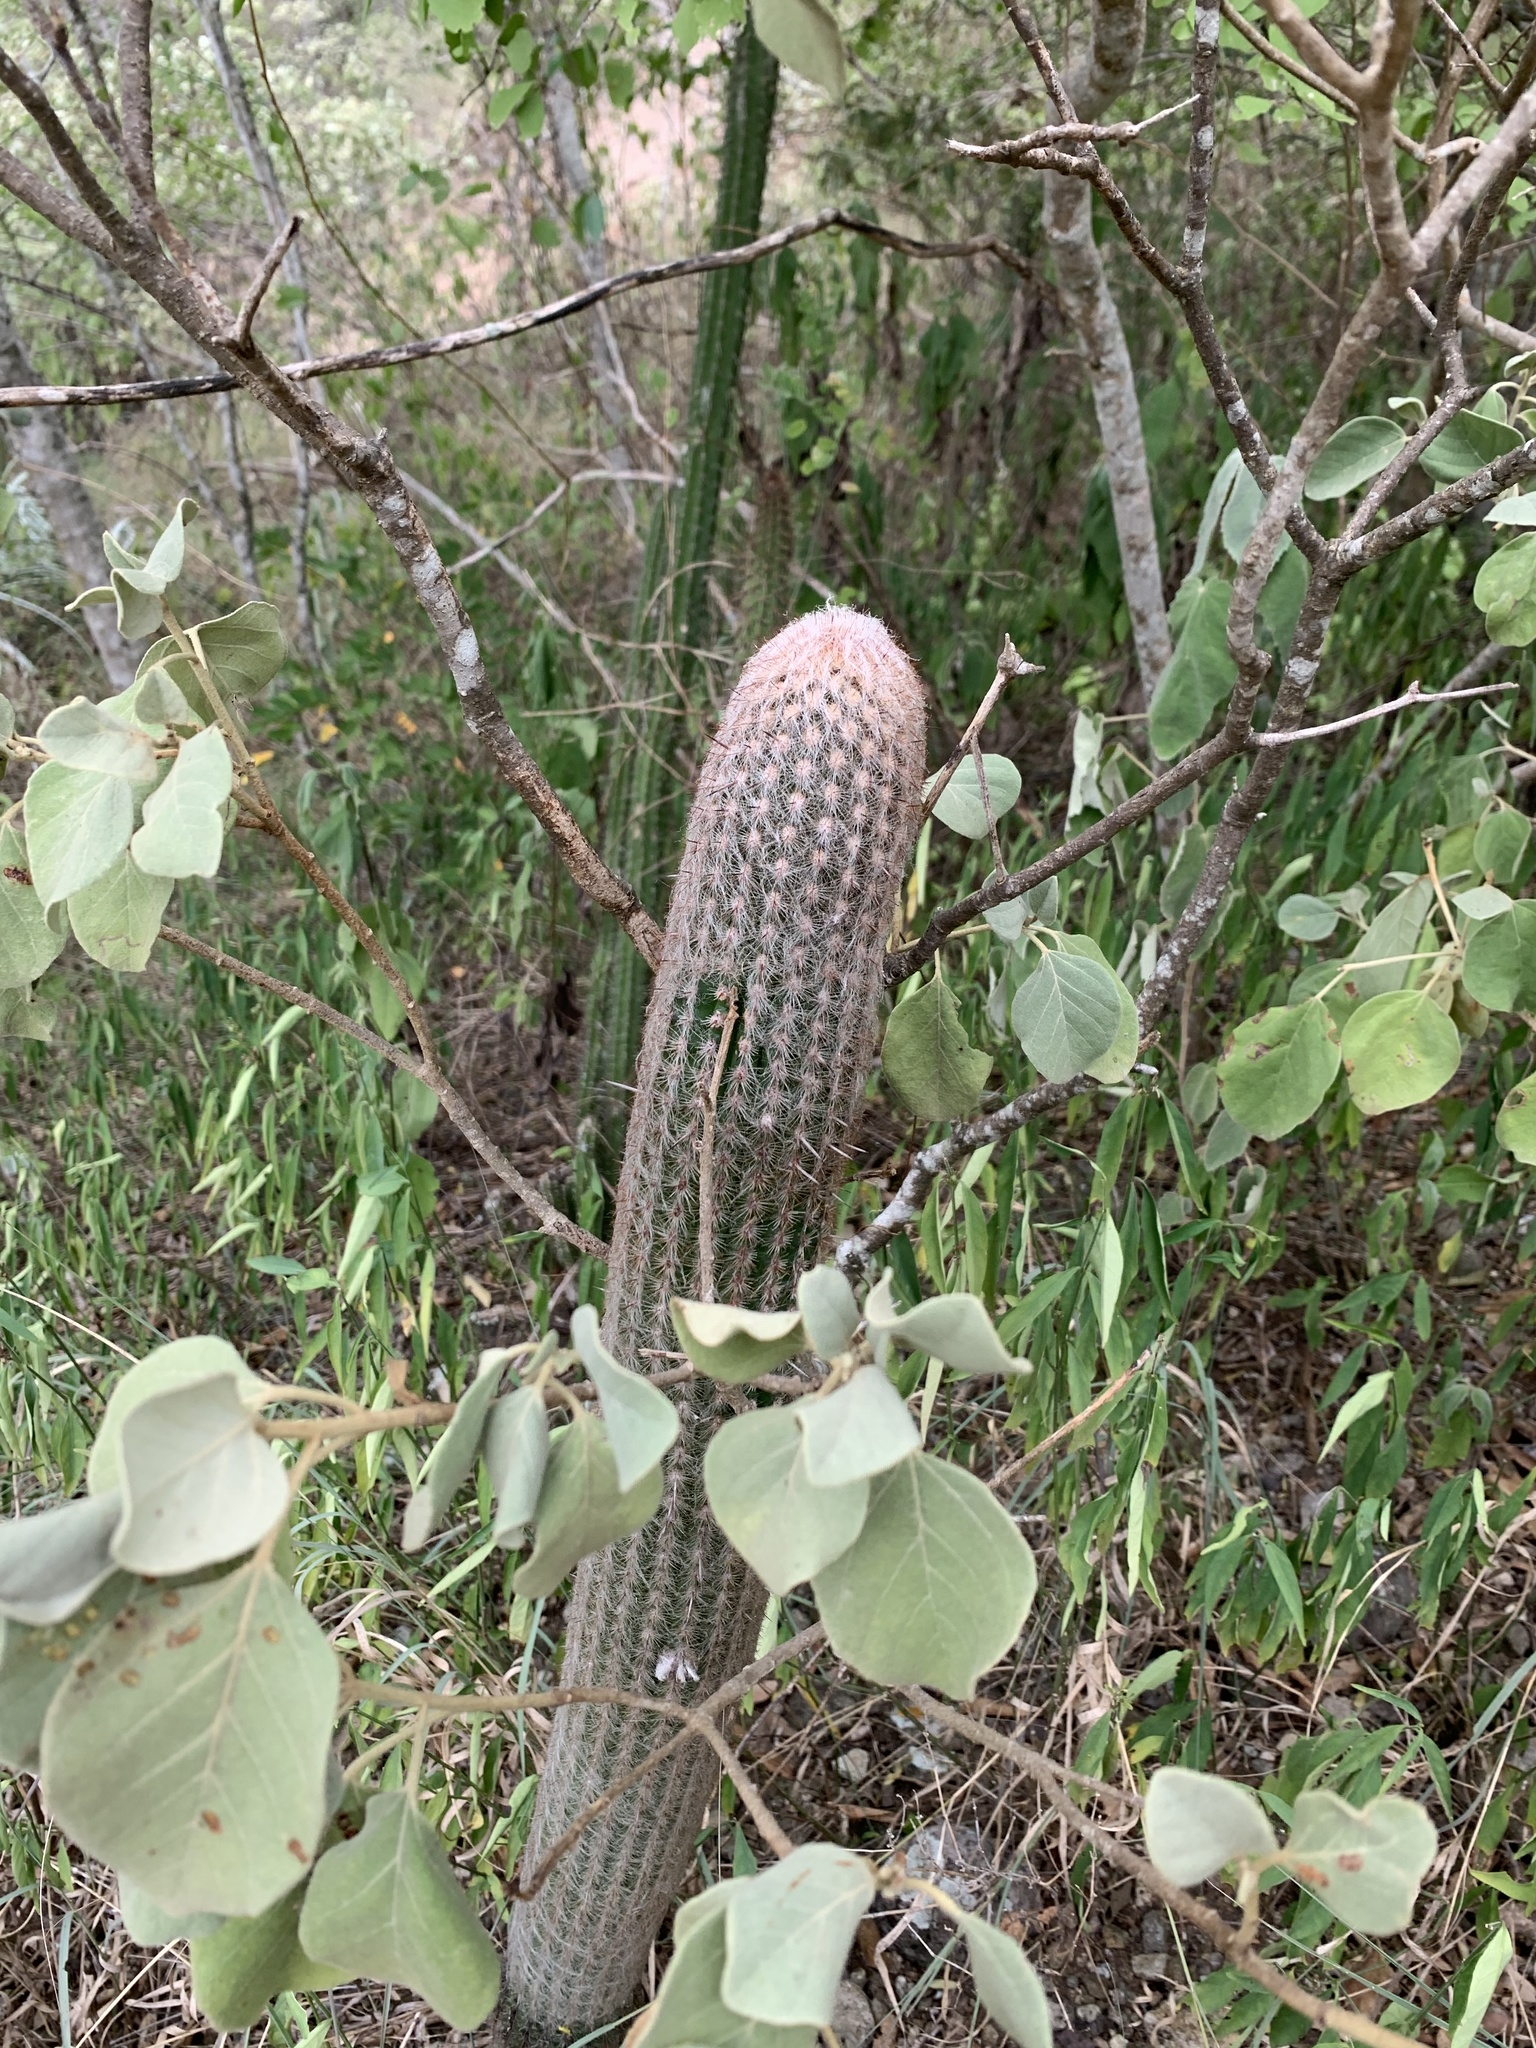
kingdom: Plantae
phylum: Tracheophyta
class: Magnoliopsida
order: Caryophyllales
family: Cactaceae
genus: Espostoa
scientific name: Espostoa lanata
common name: Snowball cactus
